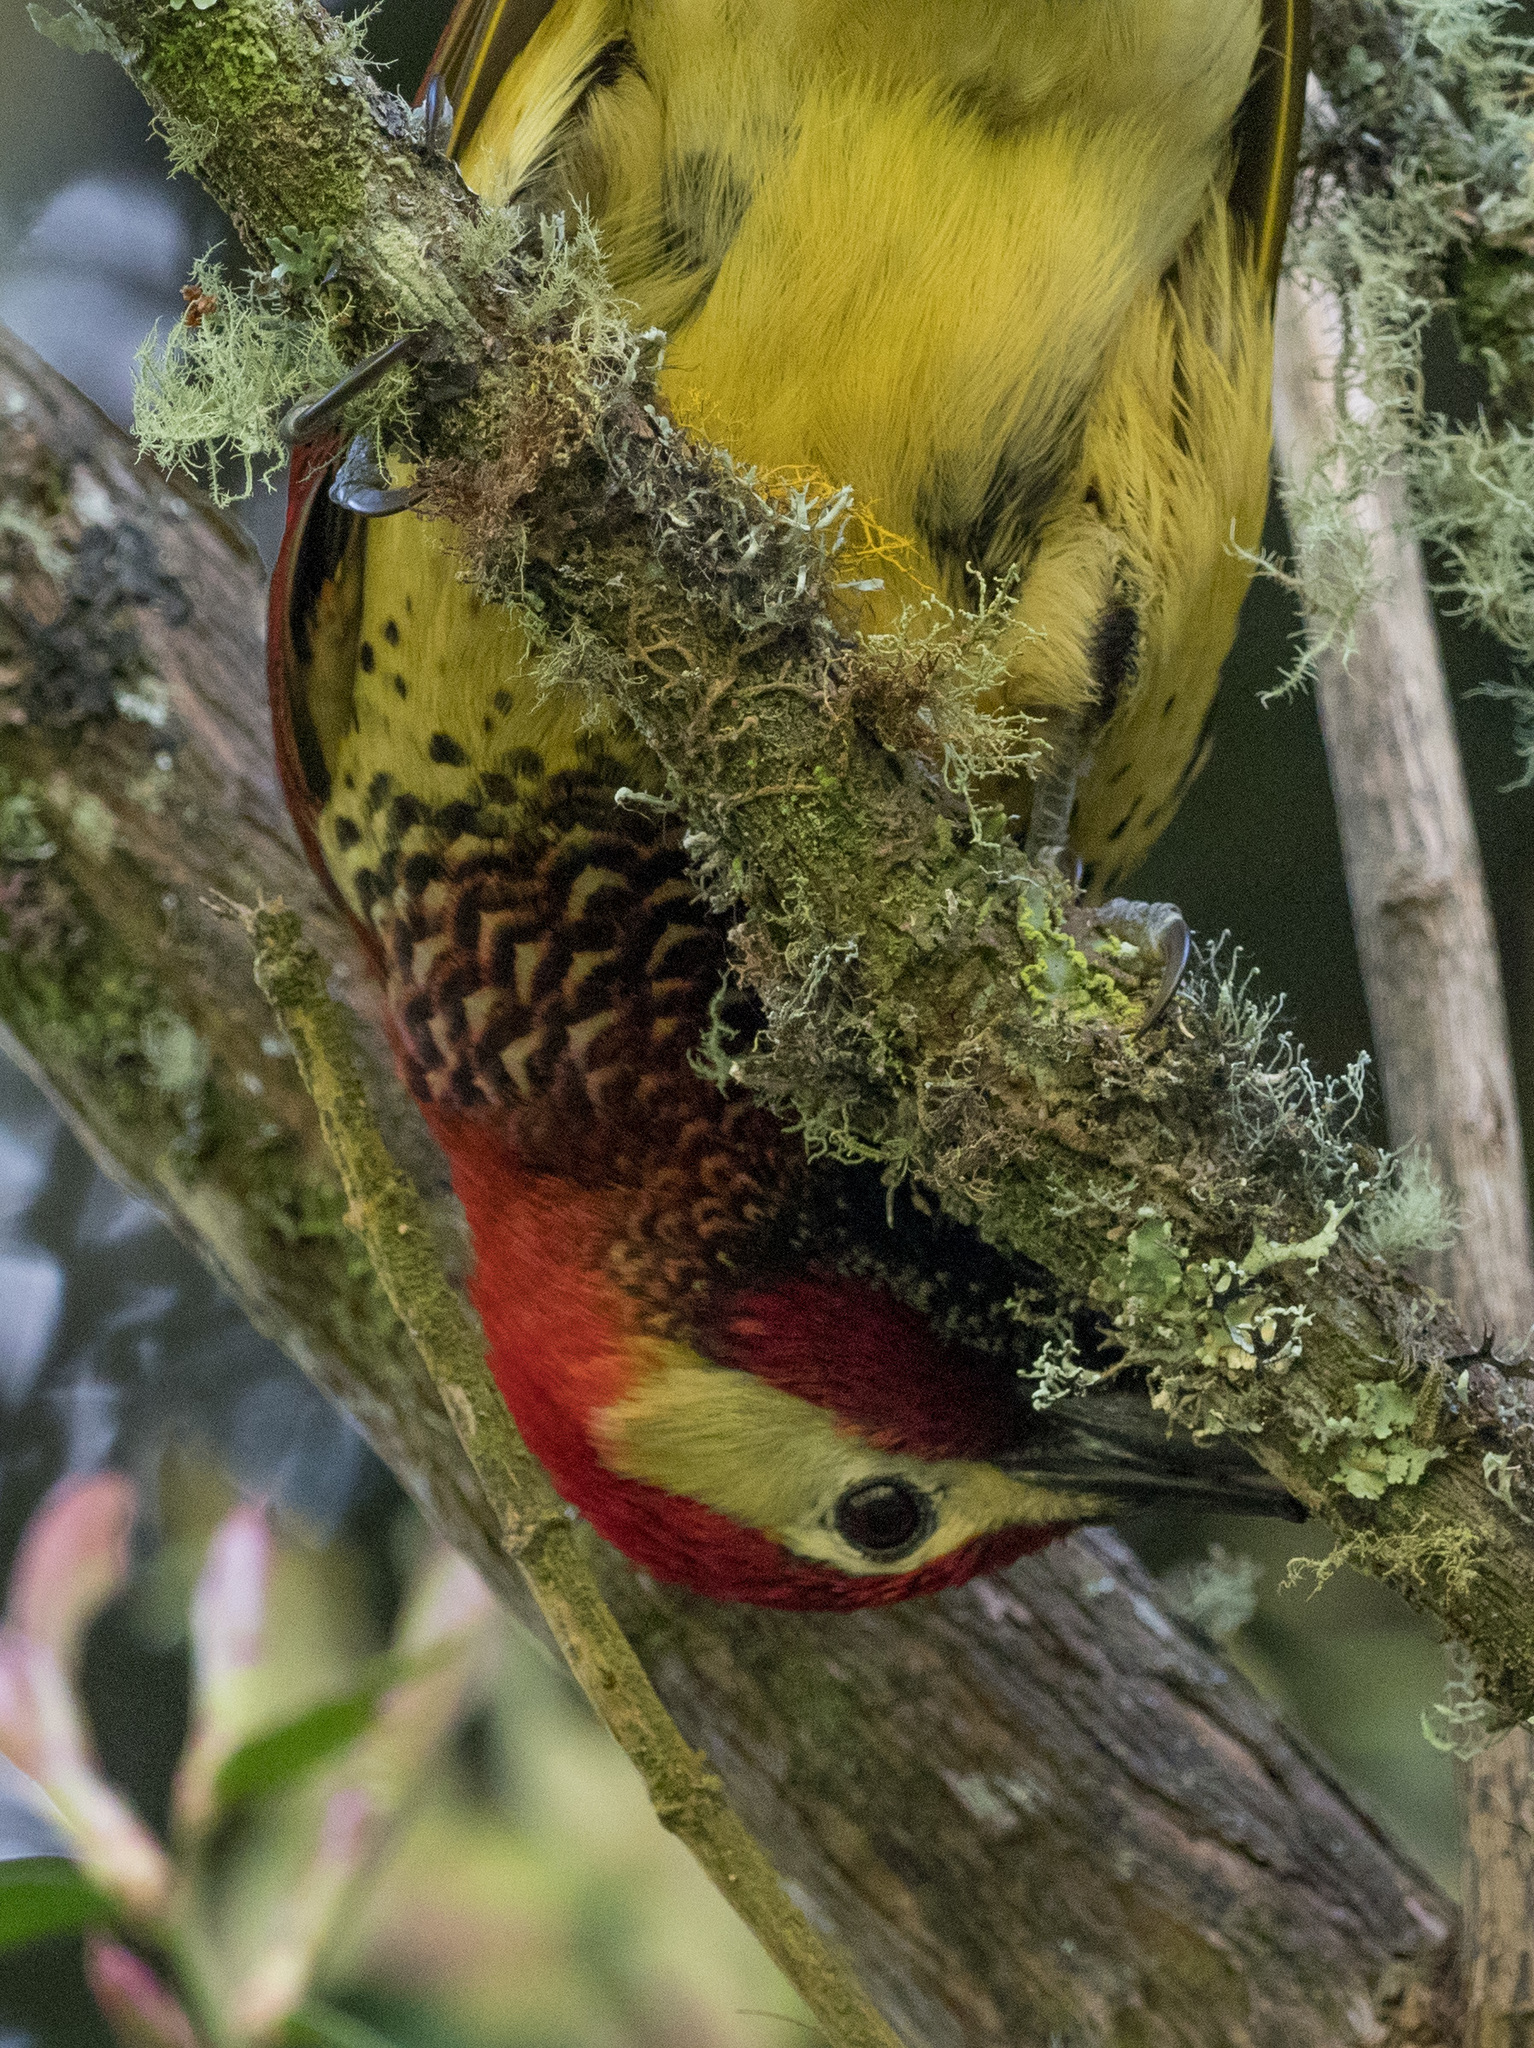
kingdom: Animalia
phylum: Chordata
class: Aves
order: Piciformes
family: Picidae
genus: Colaptes
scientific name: Colaptes rivolii
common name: Crimson-mantled woodpecker
